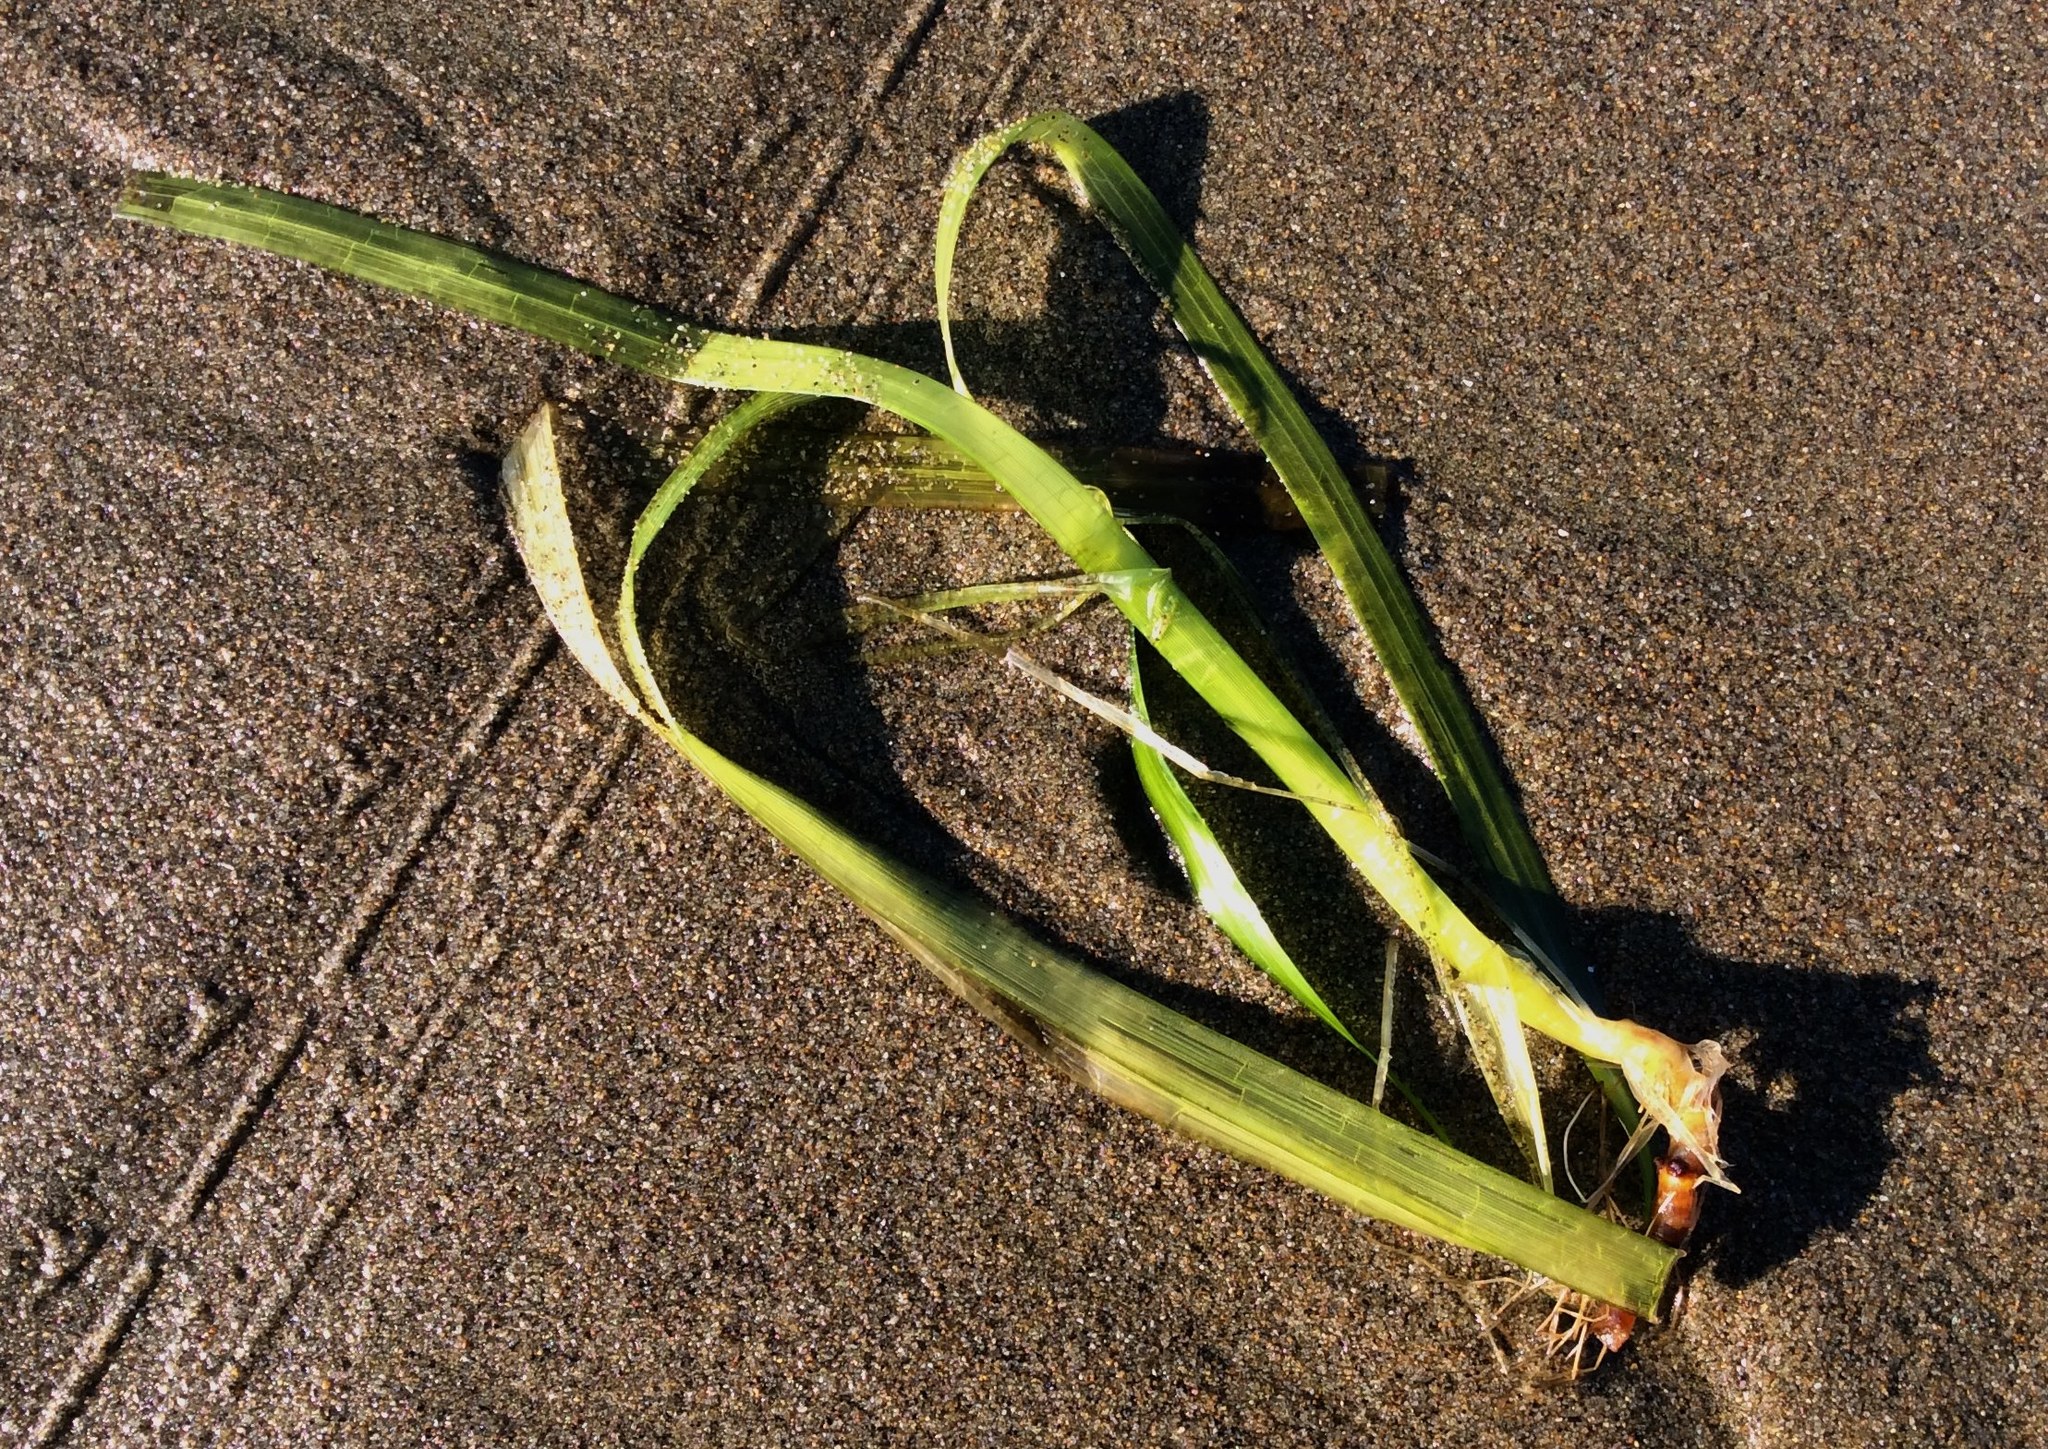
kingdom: Plantae
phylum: Tracheophyta
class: Liliopsida
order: Alismatales
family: Zosteraceae
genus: Zostera
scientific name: Zostera marina
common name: Eelgrass
